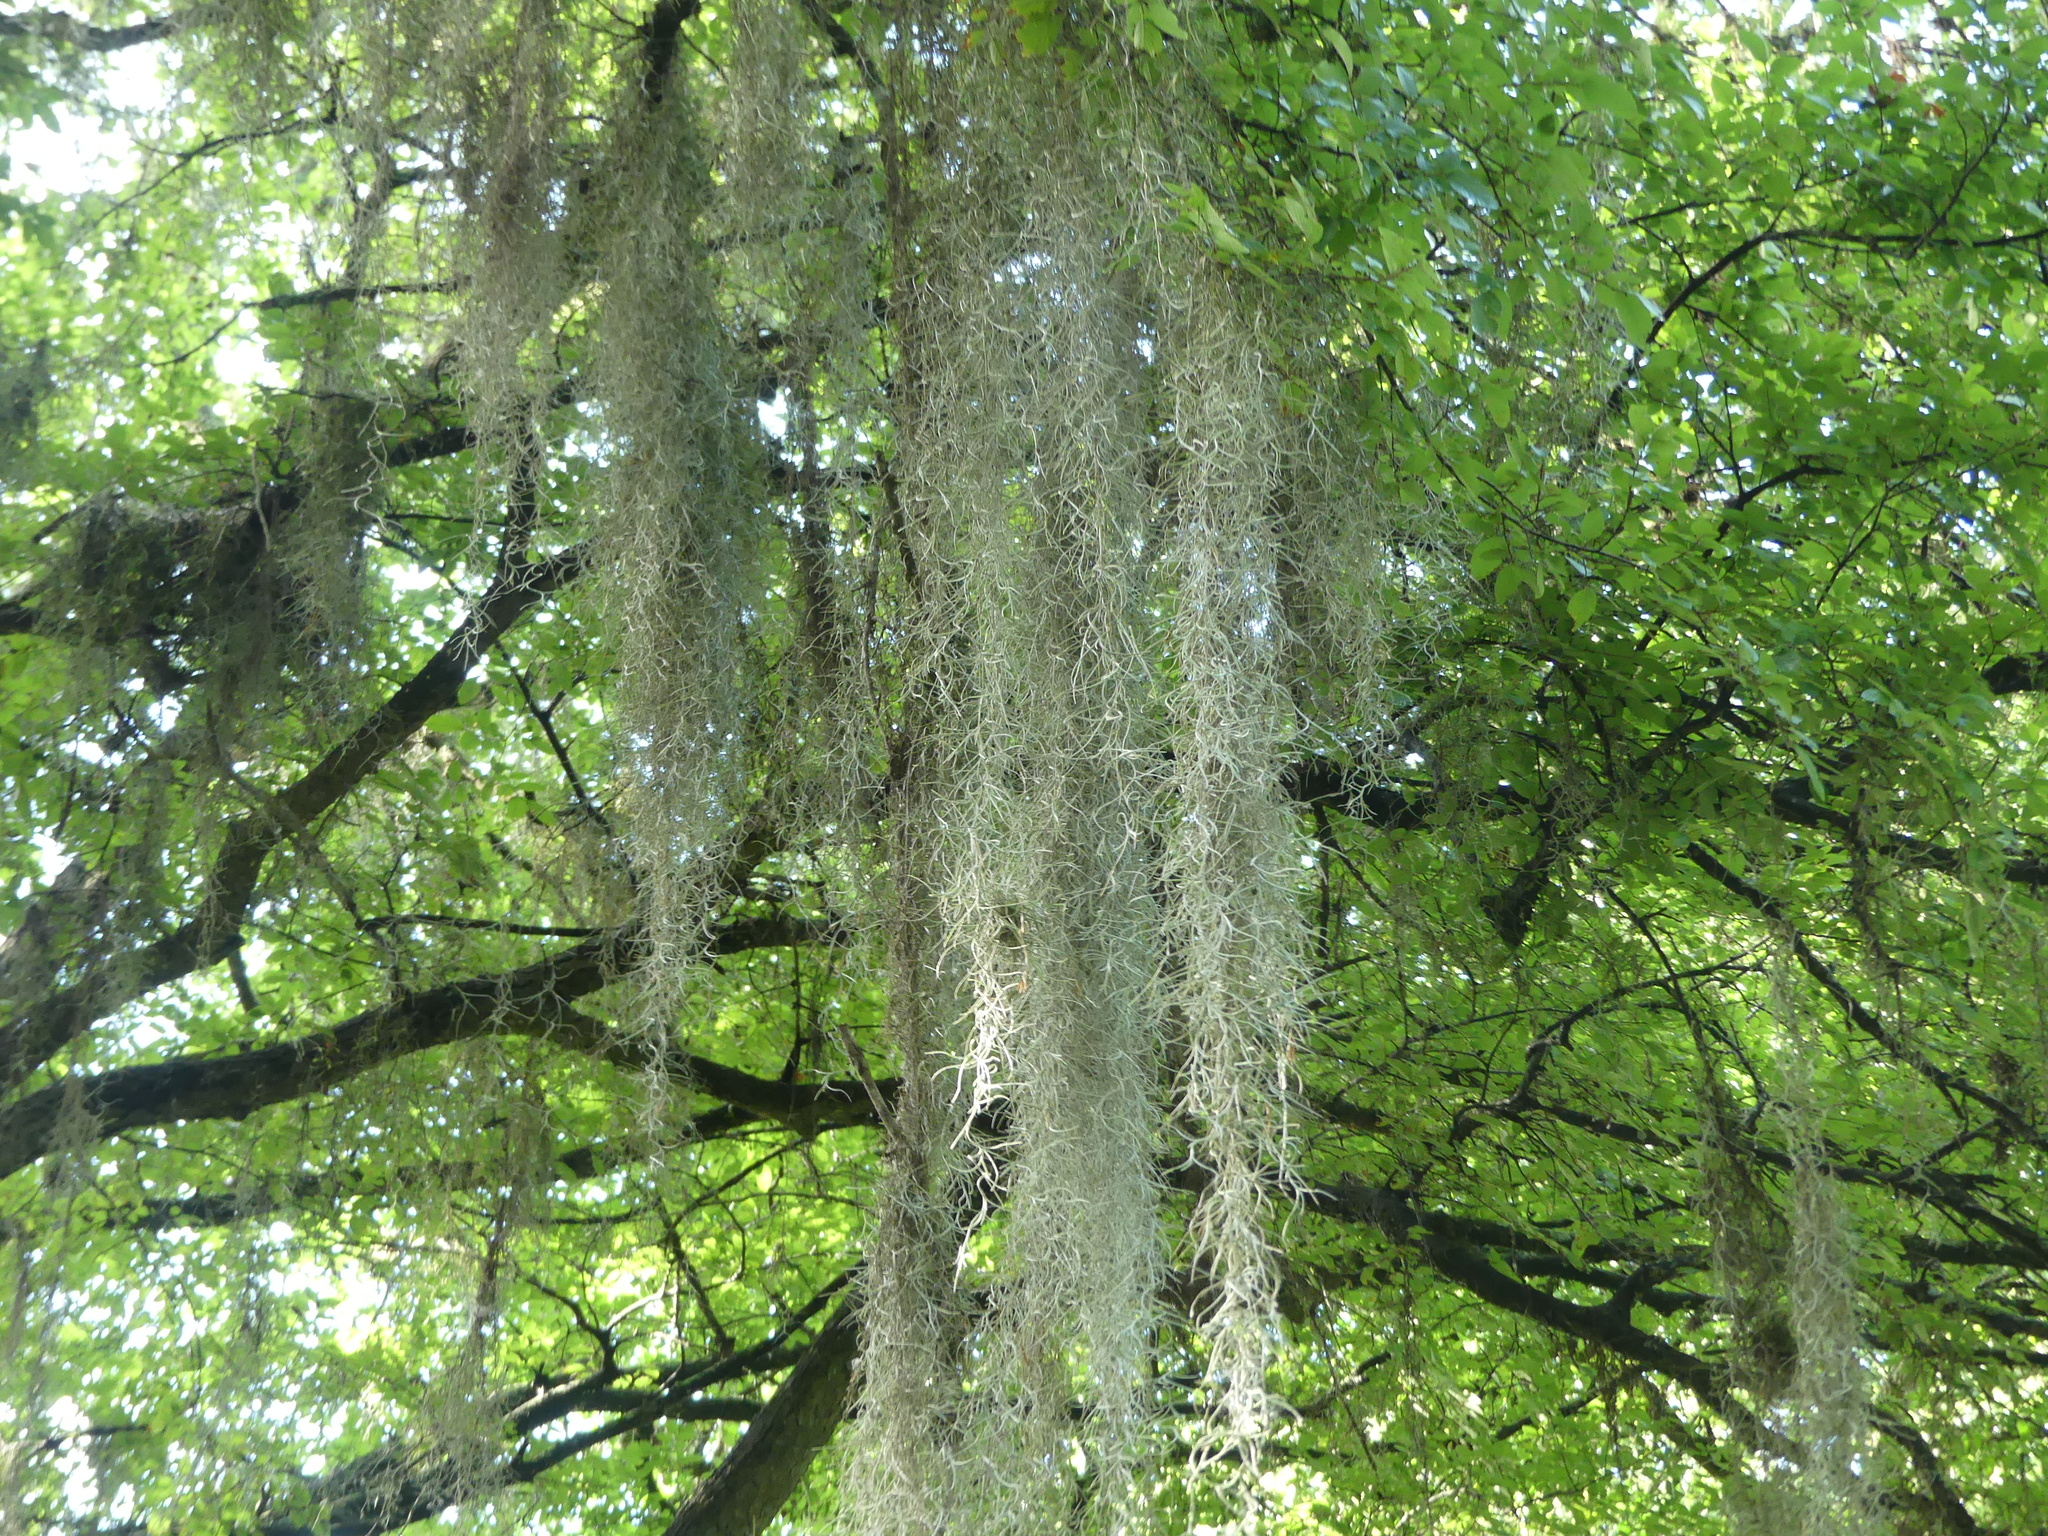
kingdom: Plantae
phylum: Tracheophyta
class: Liliopsida
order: Poales
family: Bromeliaceae
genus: Tillandsia
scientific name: Tillandsia usneoides
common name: Spanish moss
